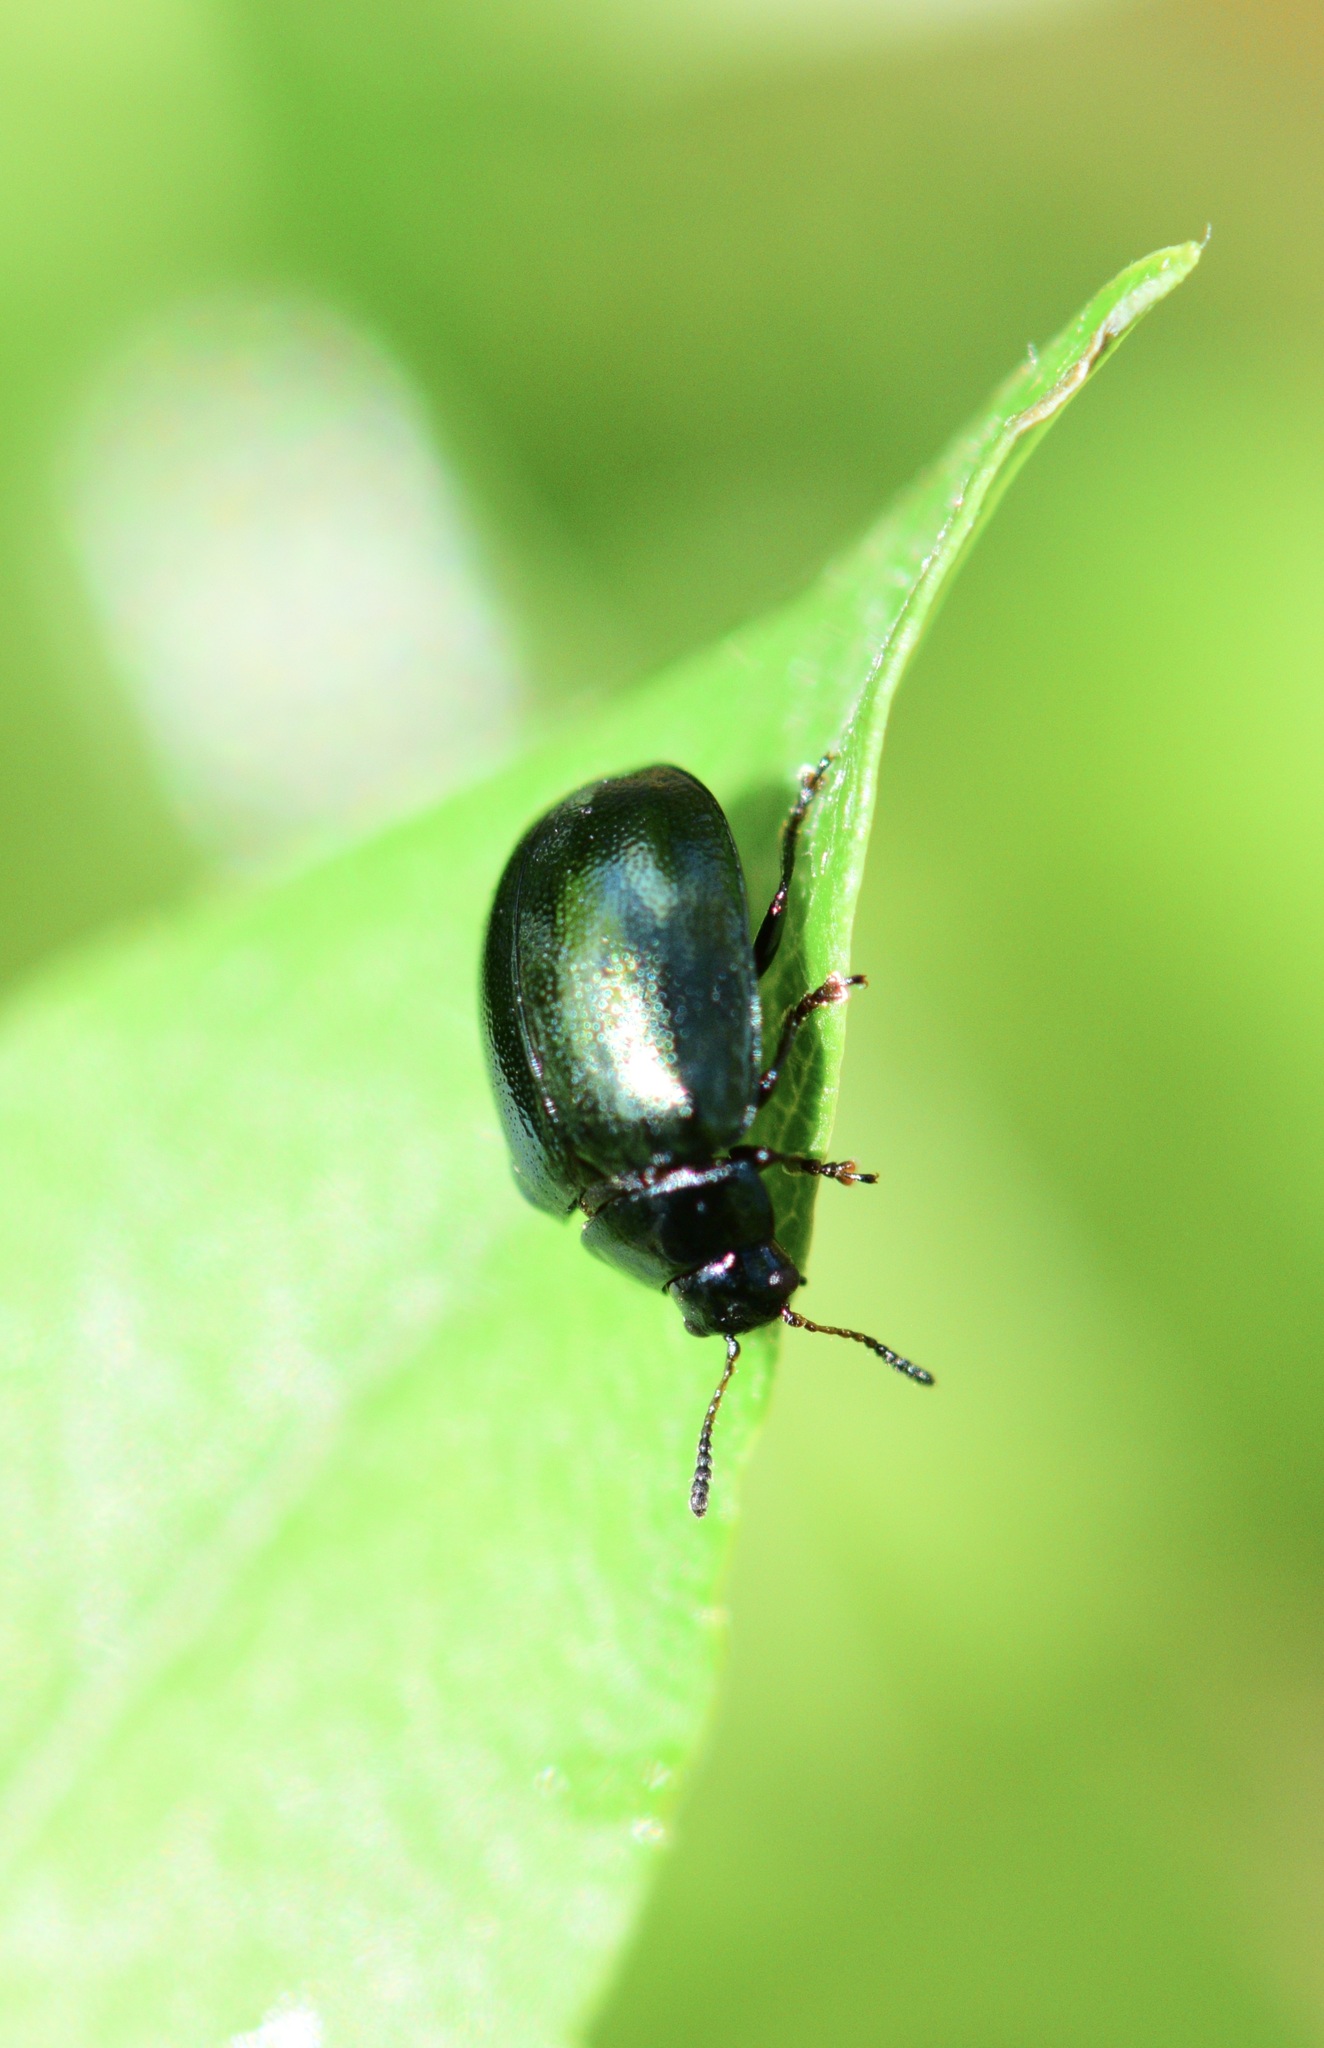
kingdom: Animalia
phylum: Arthropoda
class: Insecta
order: Coleoptera
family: Chrysomelidae
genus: Plagiodera
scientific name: Plagiodera versicolora
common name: Imported willow leaf beetle
